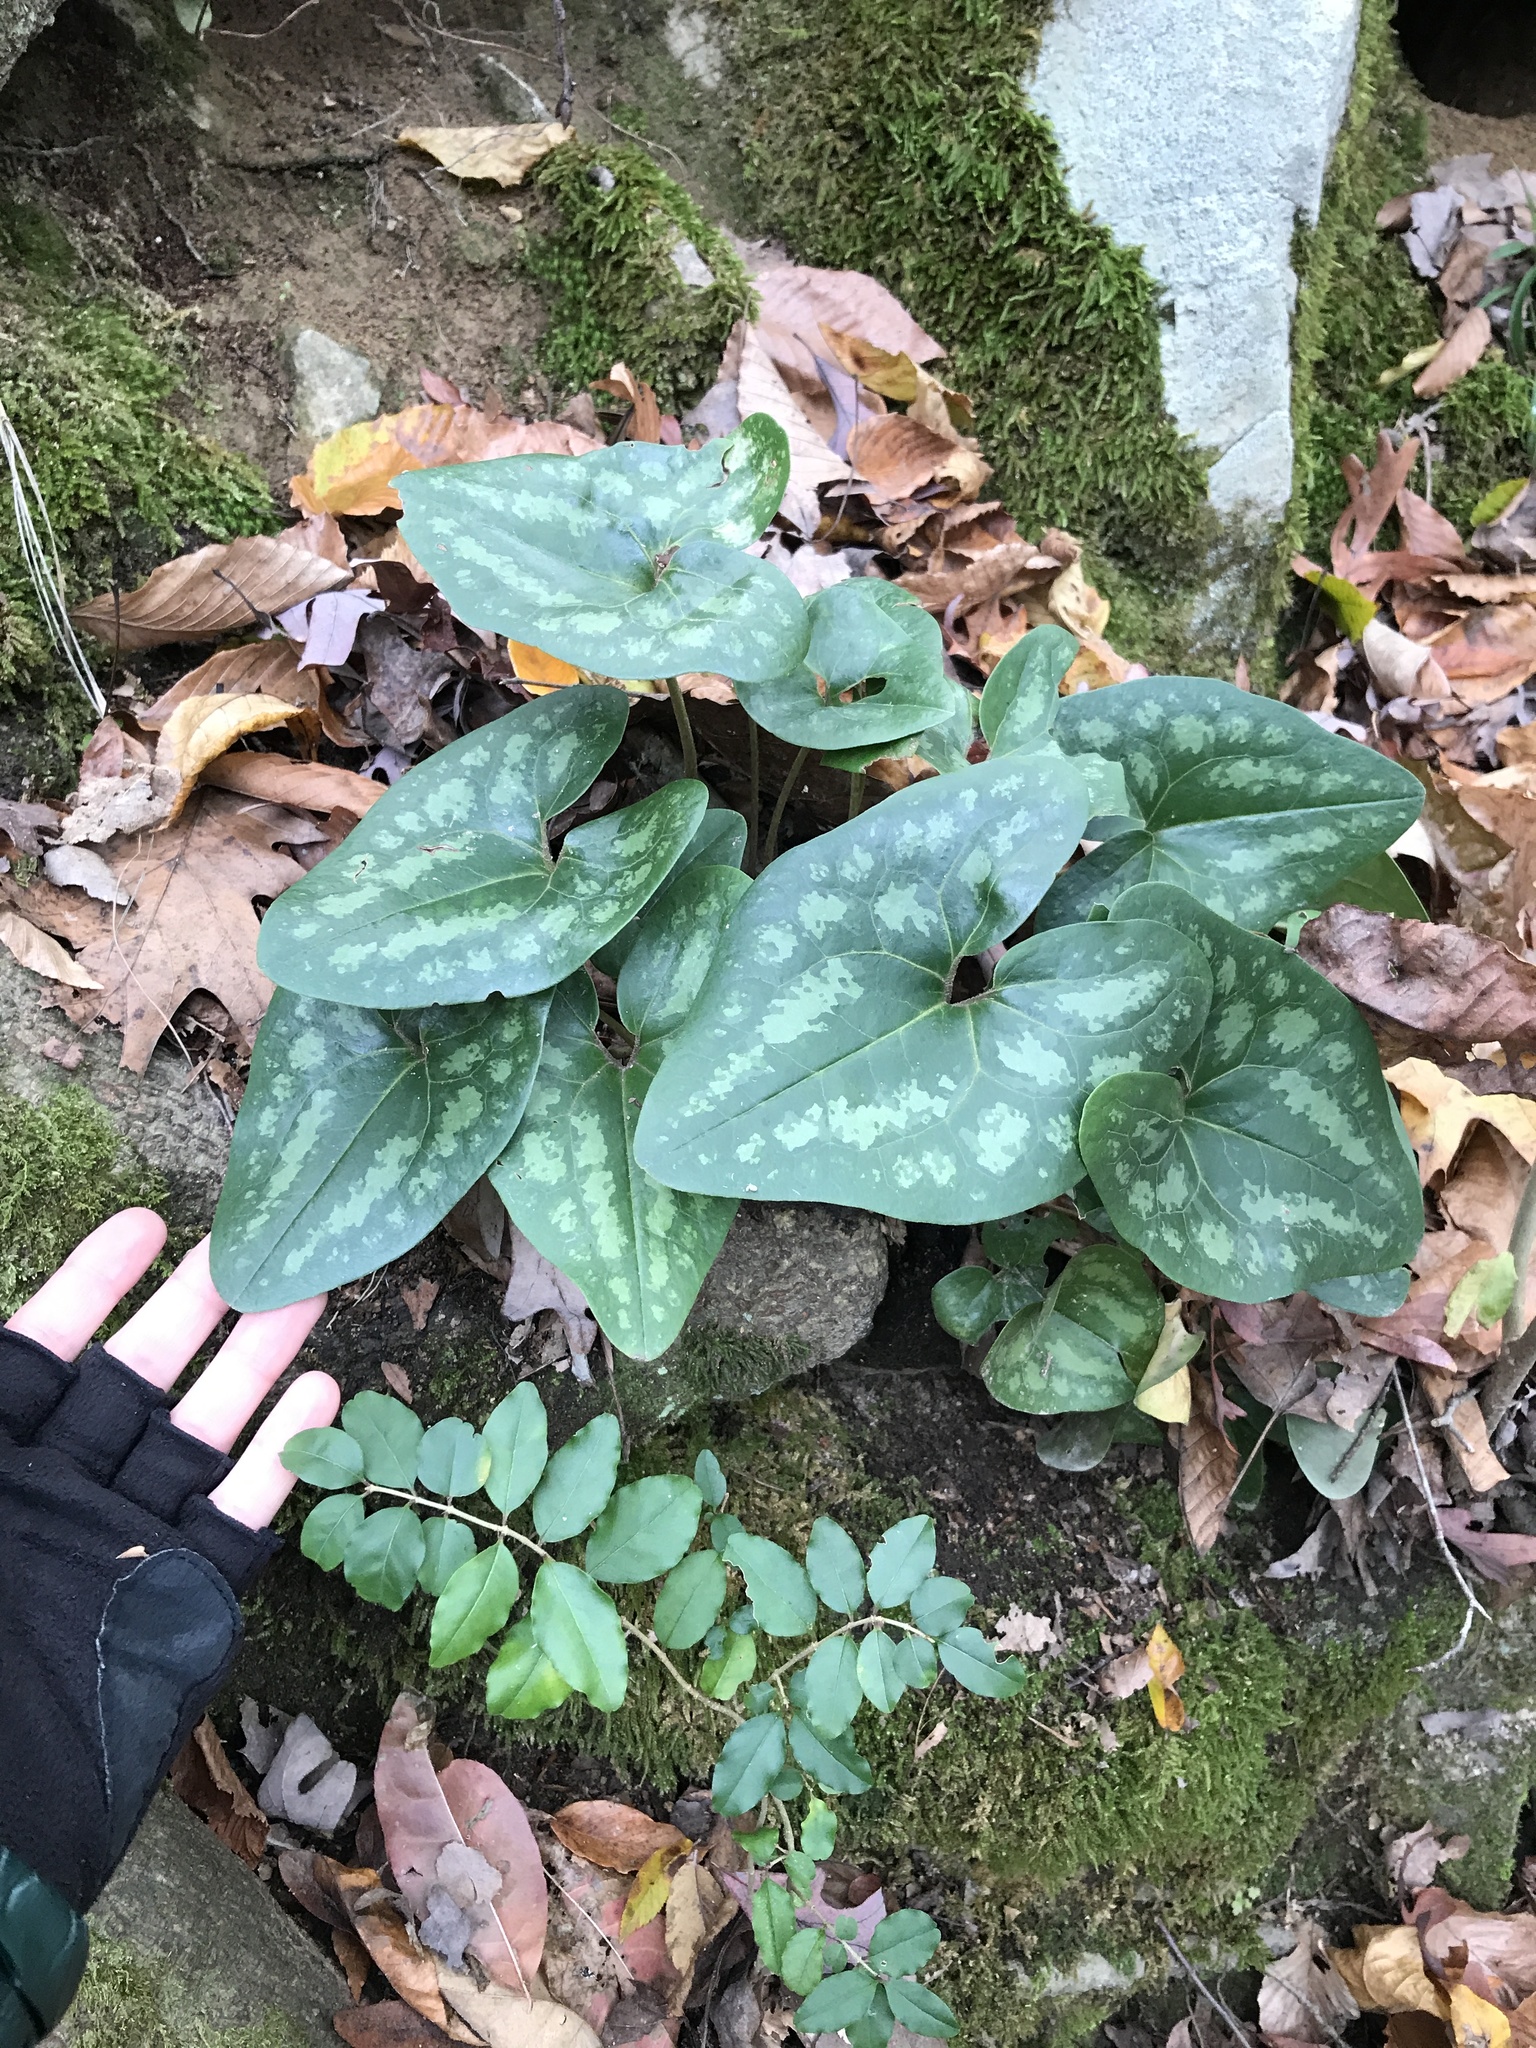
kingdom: Plantae
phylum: Tracheophyta
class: Magnoliopsida
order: Piperales
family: Aristolochiaceae
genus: Hexastylis
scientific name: Hexastylis arifolia
